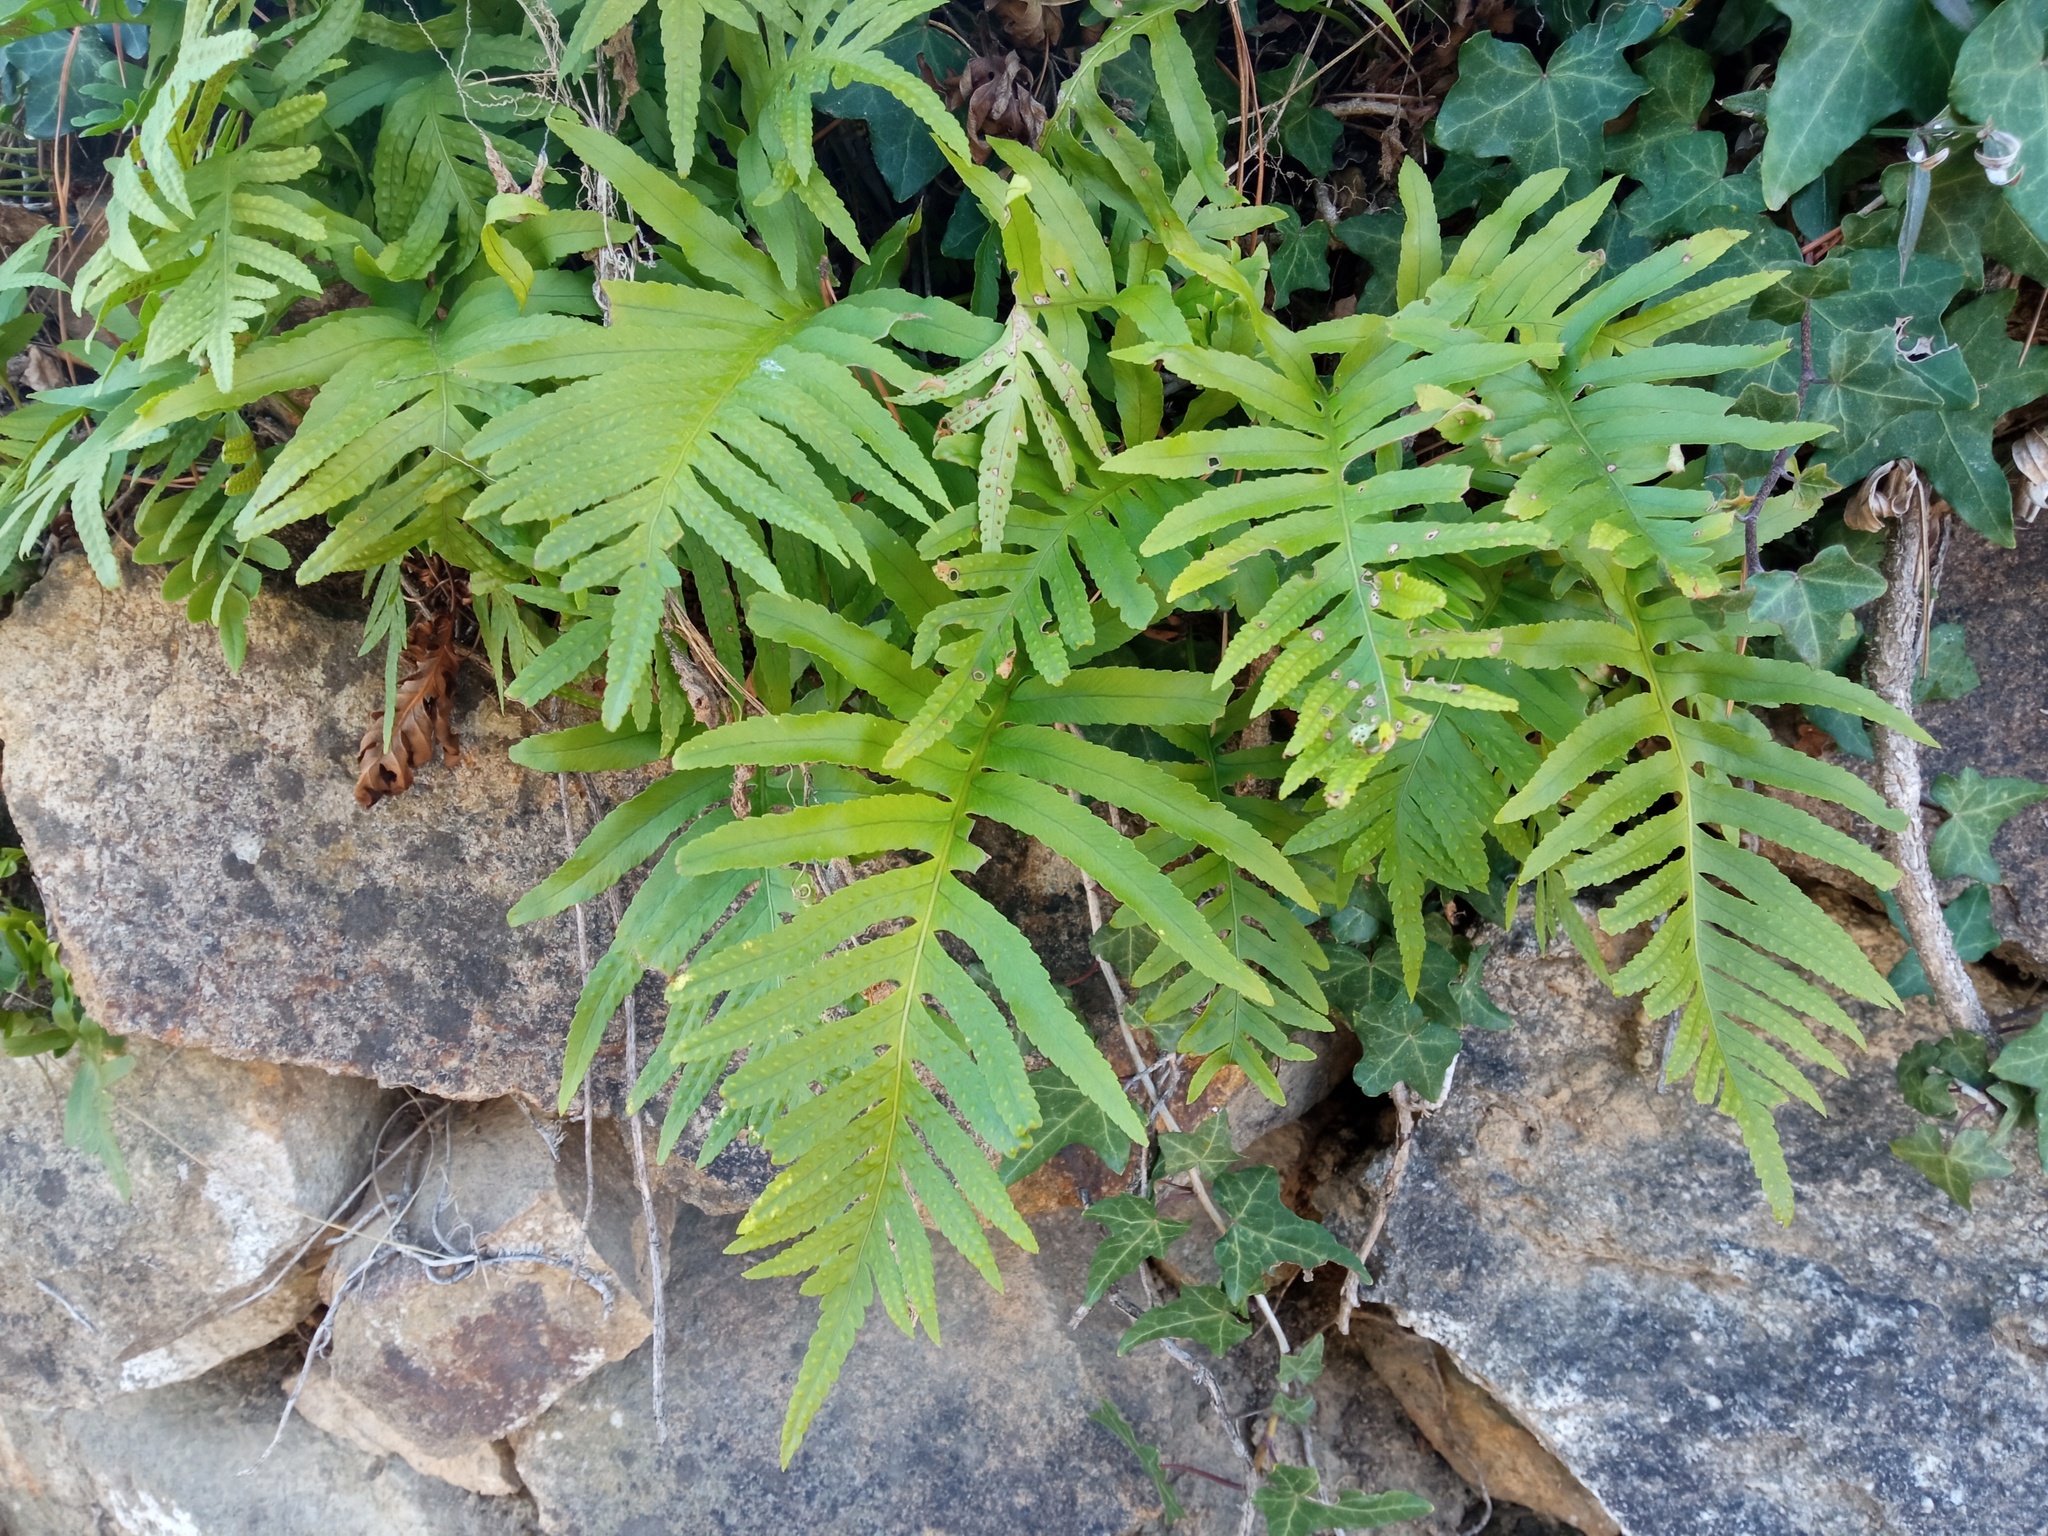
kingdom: Plantae
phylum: Tracheophyta
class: Polypodiopsida
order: Polypodiales
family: Polypodiaceae
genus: Polypodium
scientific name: Polypodium cambricum
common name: Southern polypody
